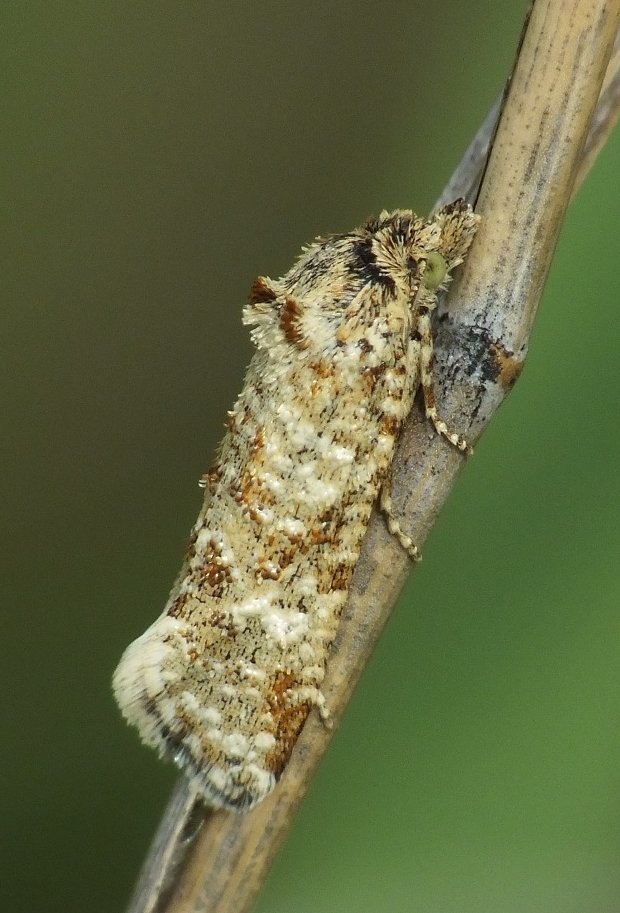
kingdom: Animalia
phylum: Arthropoda
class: Insecta
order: Lepidoptera
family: Tortricidae
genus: Aethes
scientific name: Aethes margarotana
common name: Shore conch
